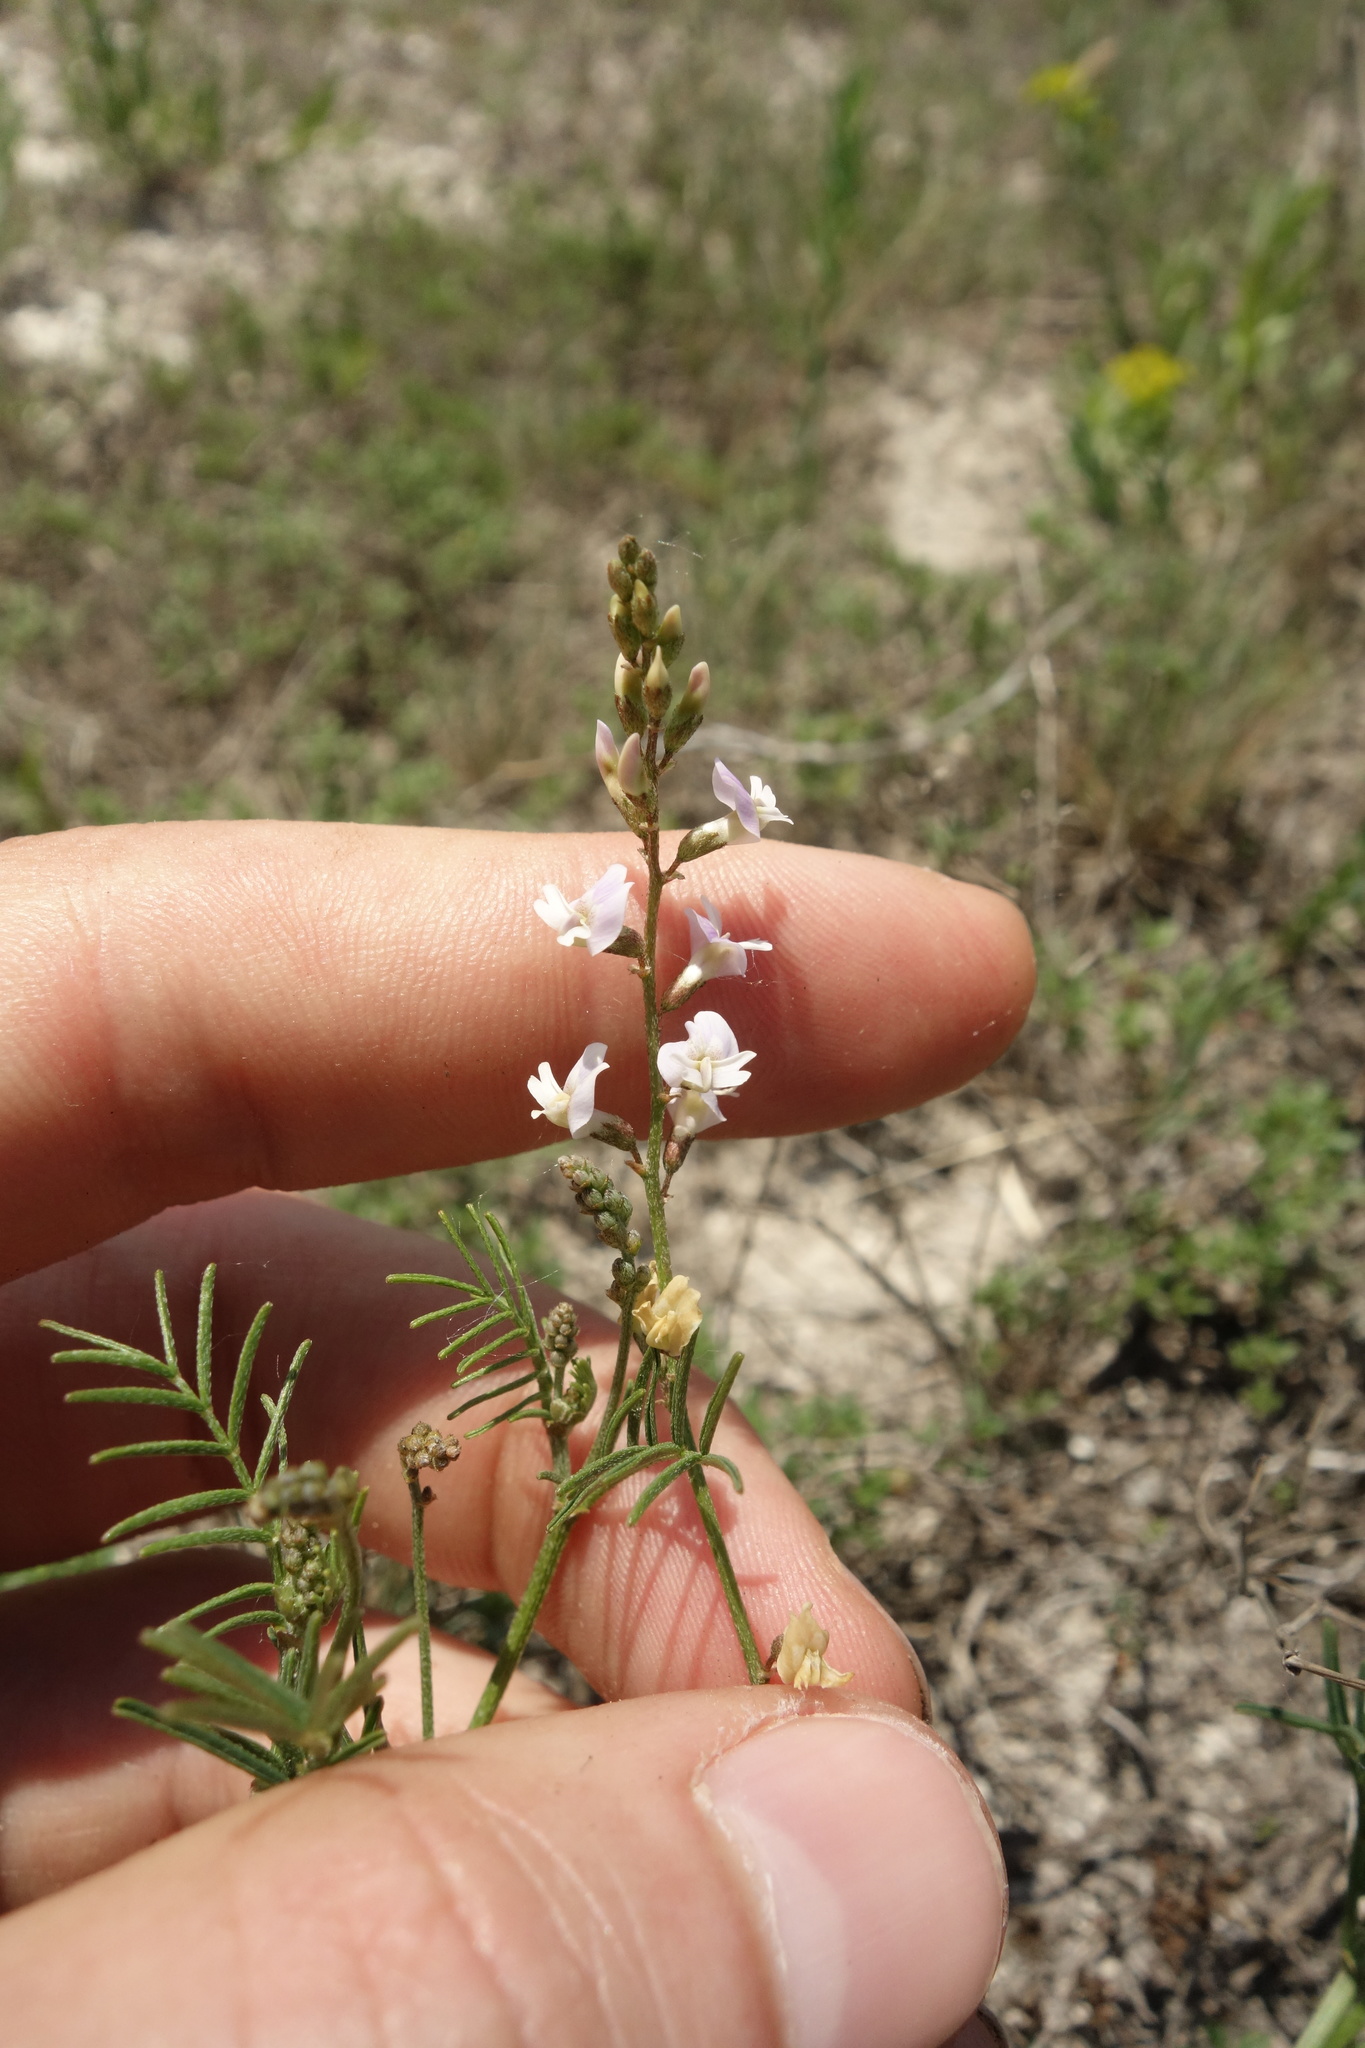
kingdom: Plantae
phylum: Tracheophyta
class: Magnoliopsida
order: Fabales
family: Fabaceae
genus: Astragalus
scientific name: Astragalus austriacus
